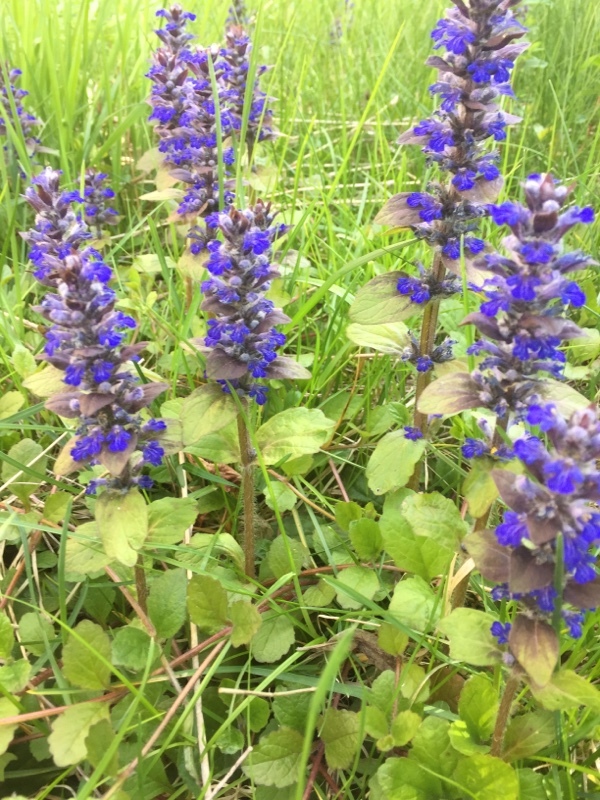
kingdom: Plantae
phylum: Tracheophyta
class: Magnoliopsida
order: Lamiales
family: Lamiaceae
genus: Ajuga
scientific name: Ajuga reptans
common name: Bugle
